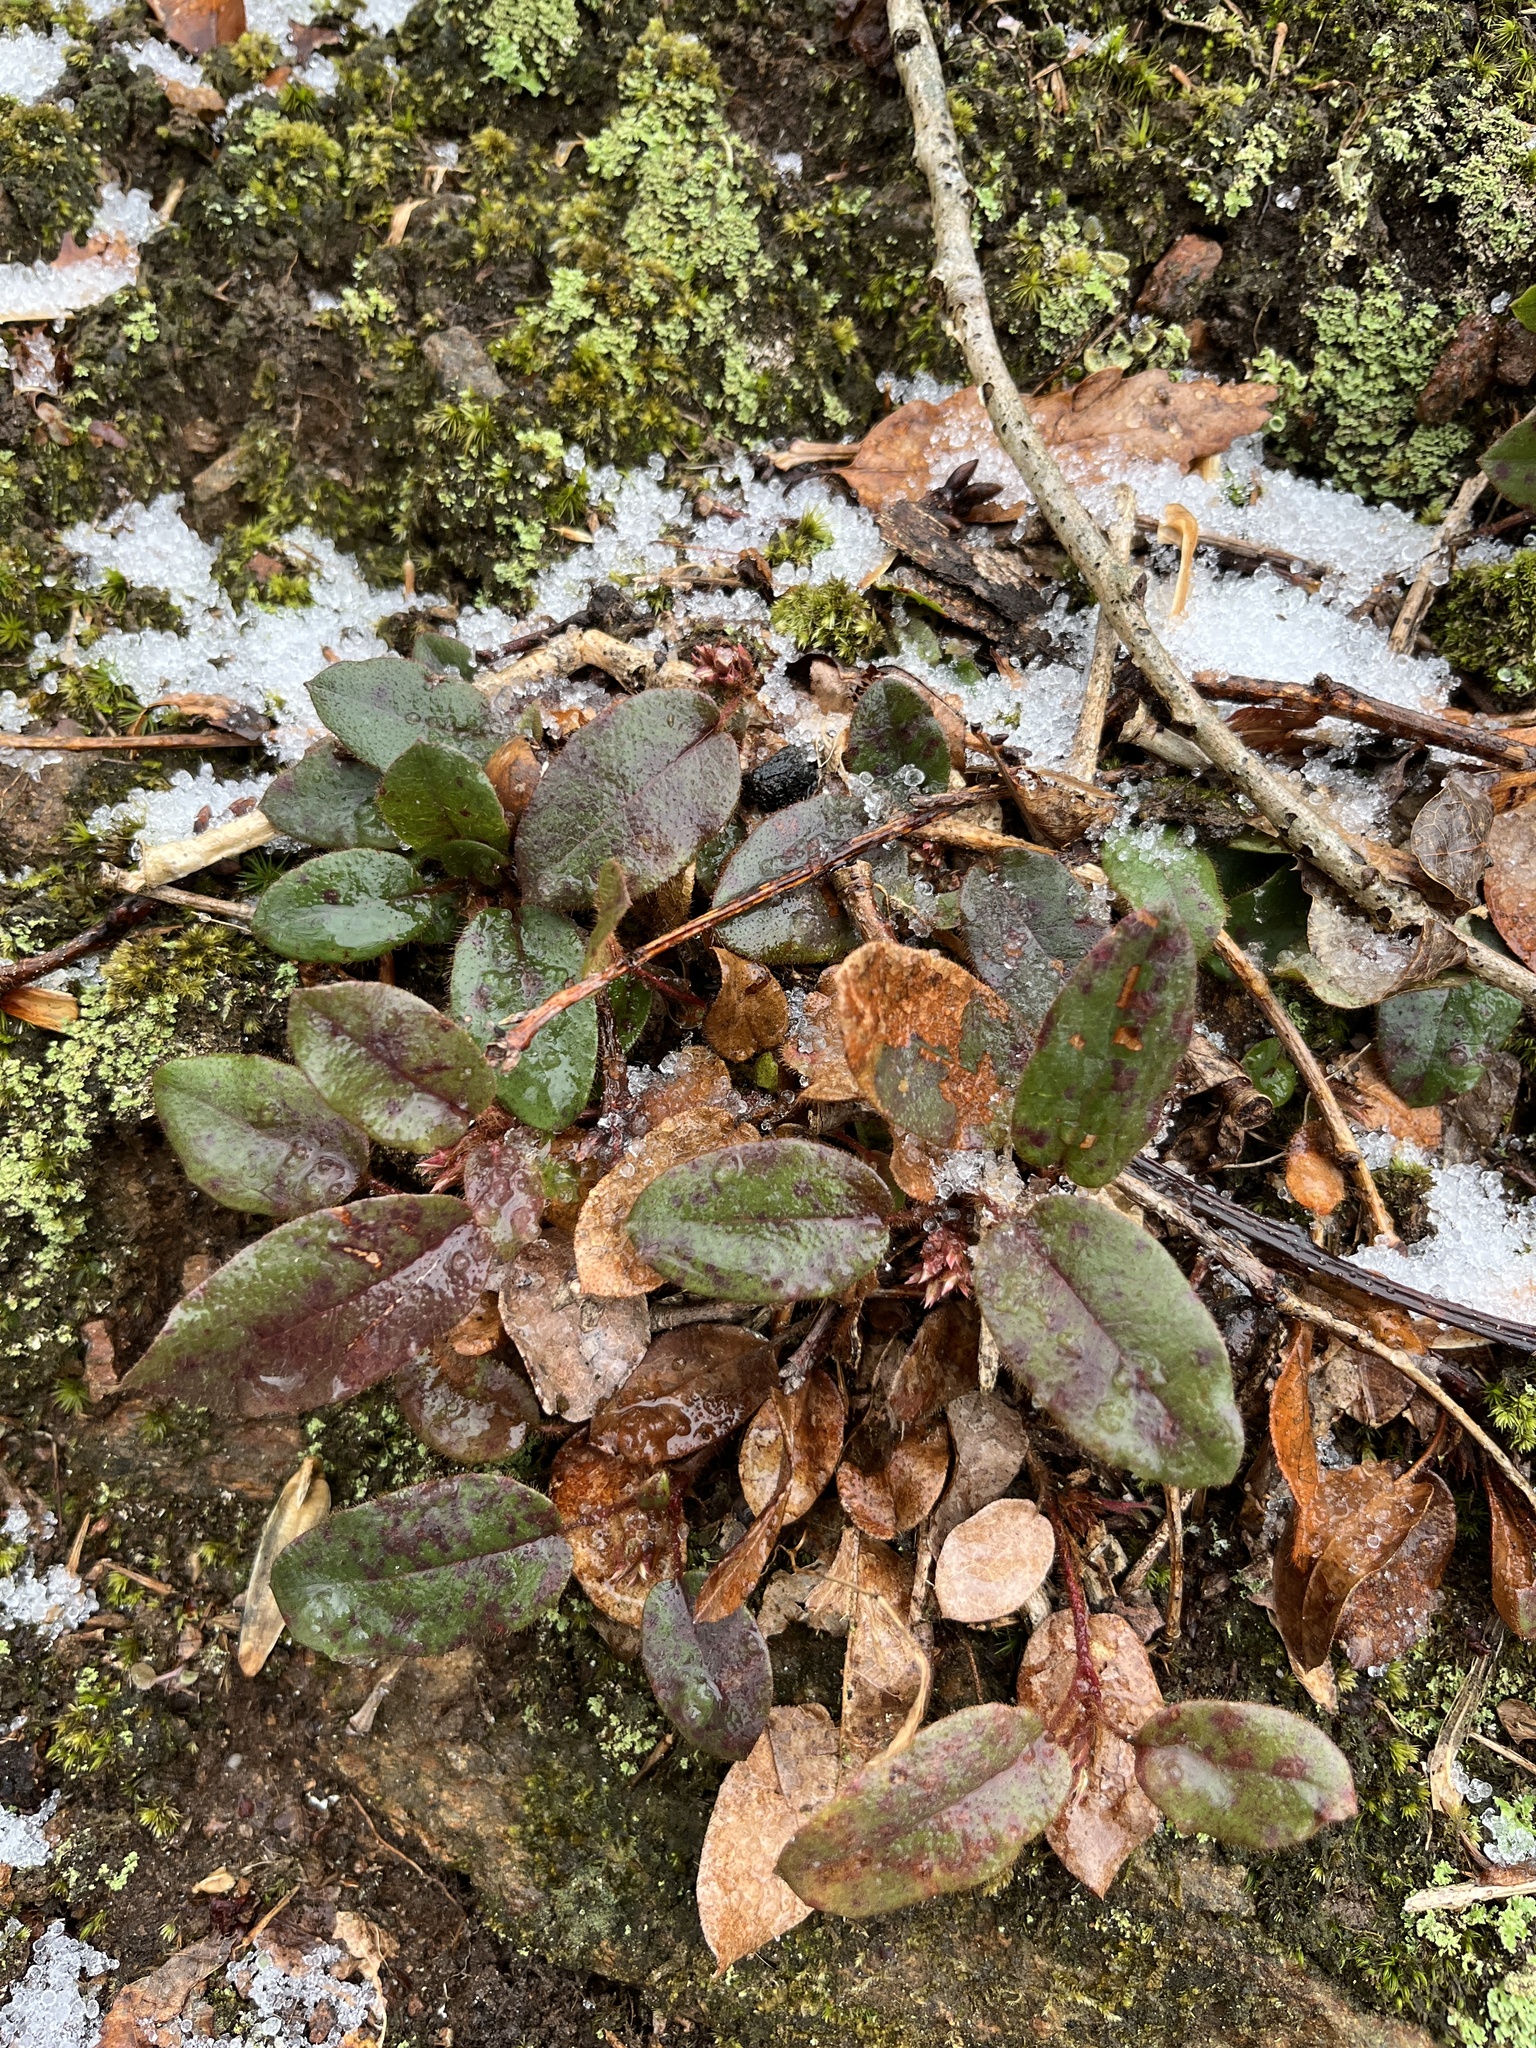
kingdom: Plantae
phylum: Tracheophyta
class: Magnoliopsida
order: Ericales
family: Ericaceae
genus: Epigaea
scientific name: Epigaea repens
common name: Gravelroot
